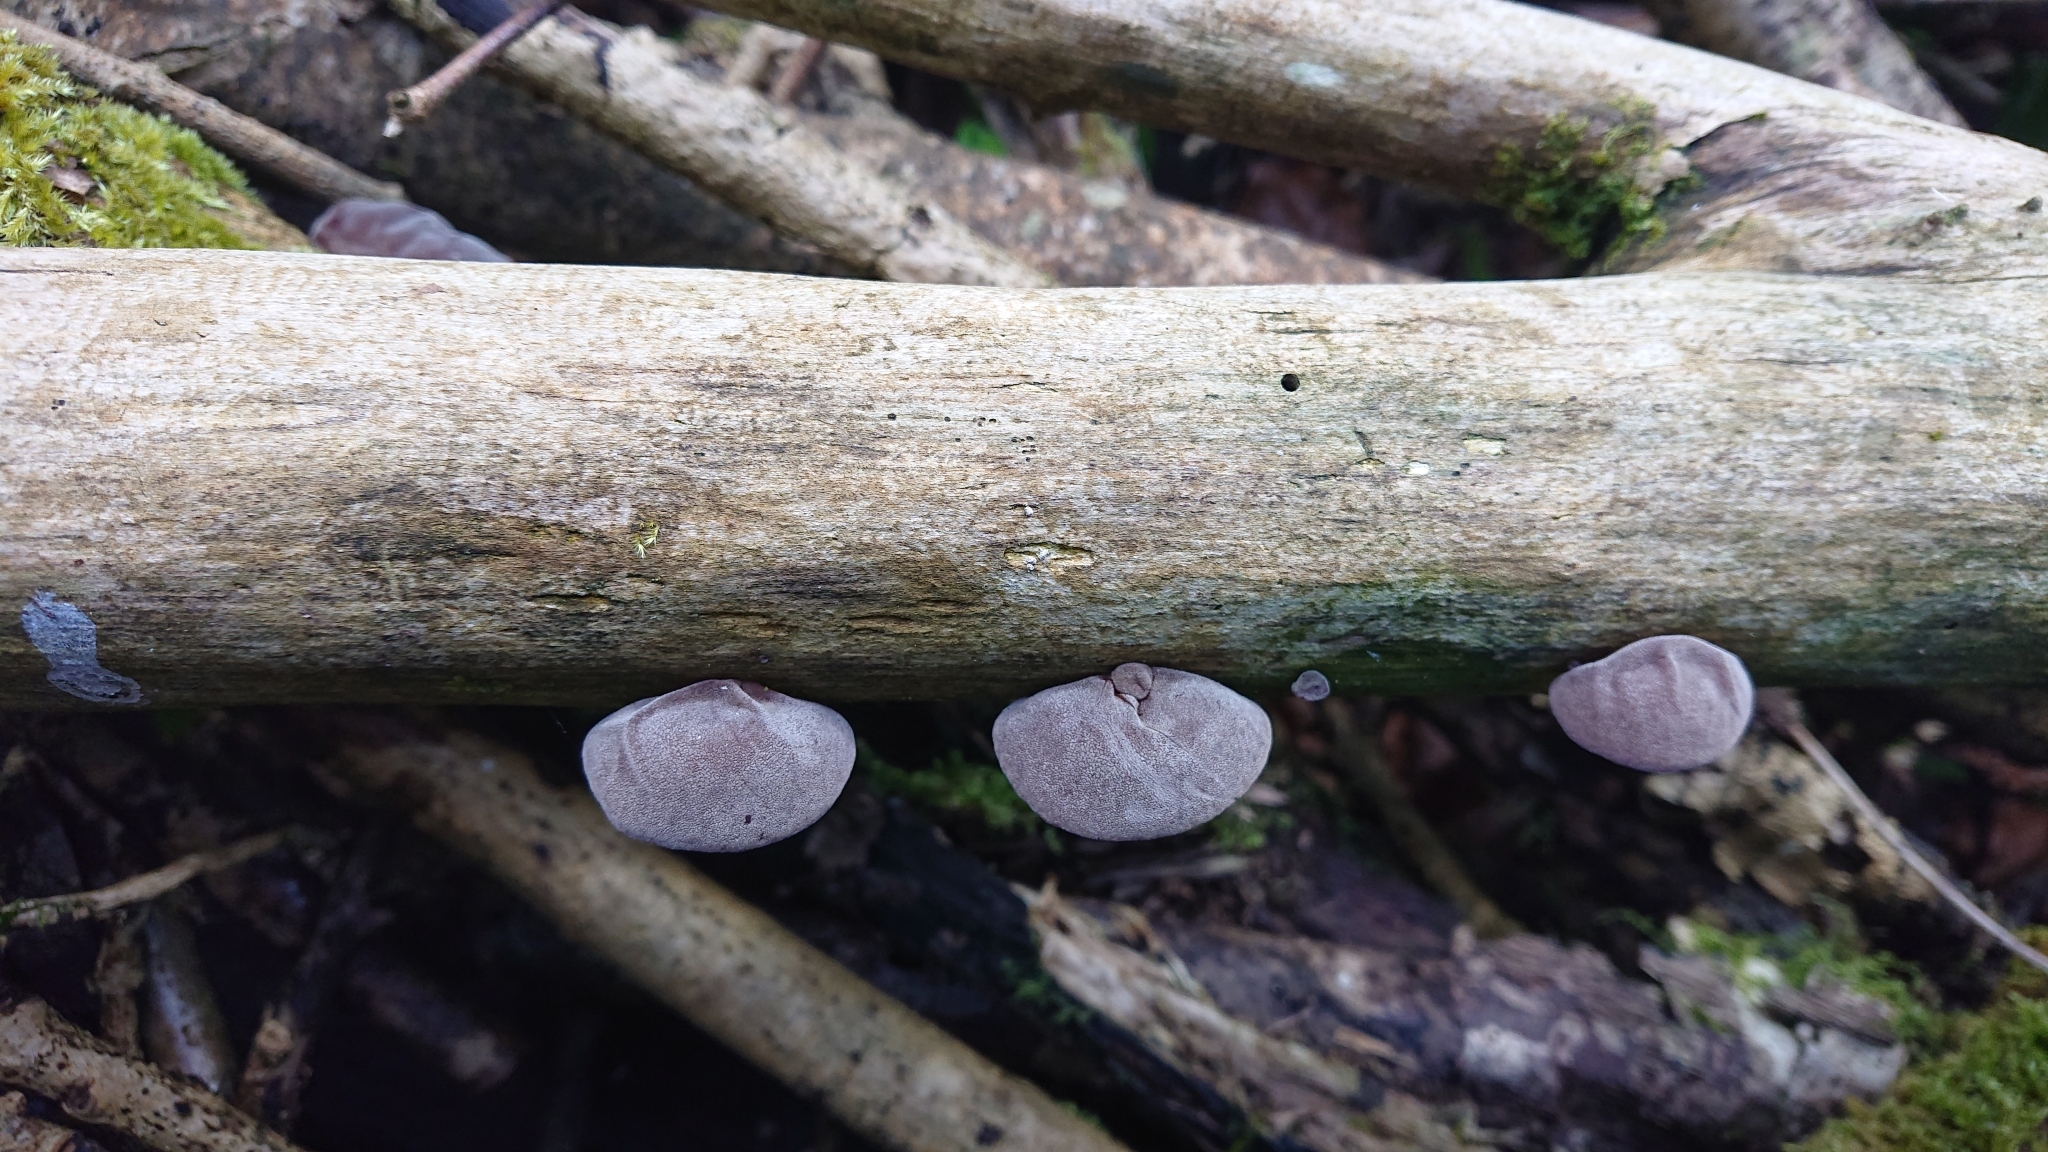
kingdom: Fungi
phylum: Basidiomycota
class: Agaricomycetes
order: Auriculariales
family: Auriculariaceae
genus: Auricularia
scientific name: Auricularia auricula-judae
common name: Jelly ear
